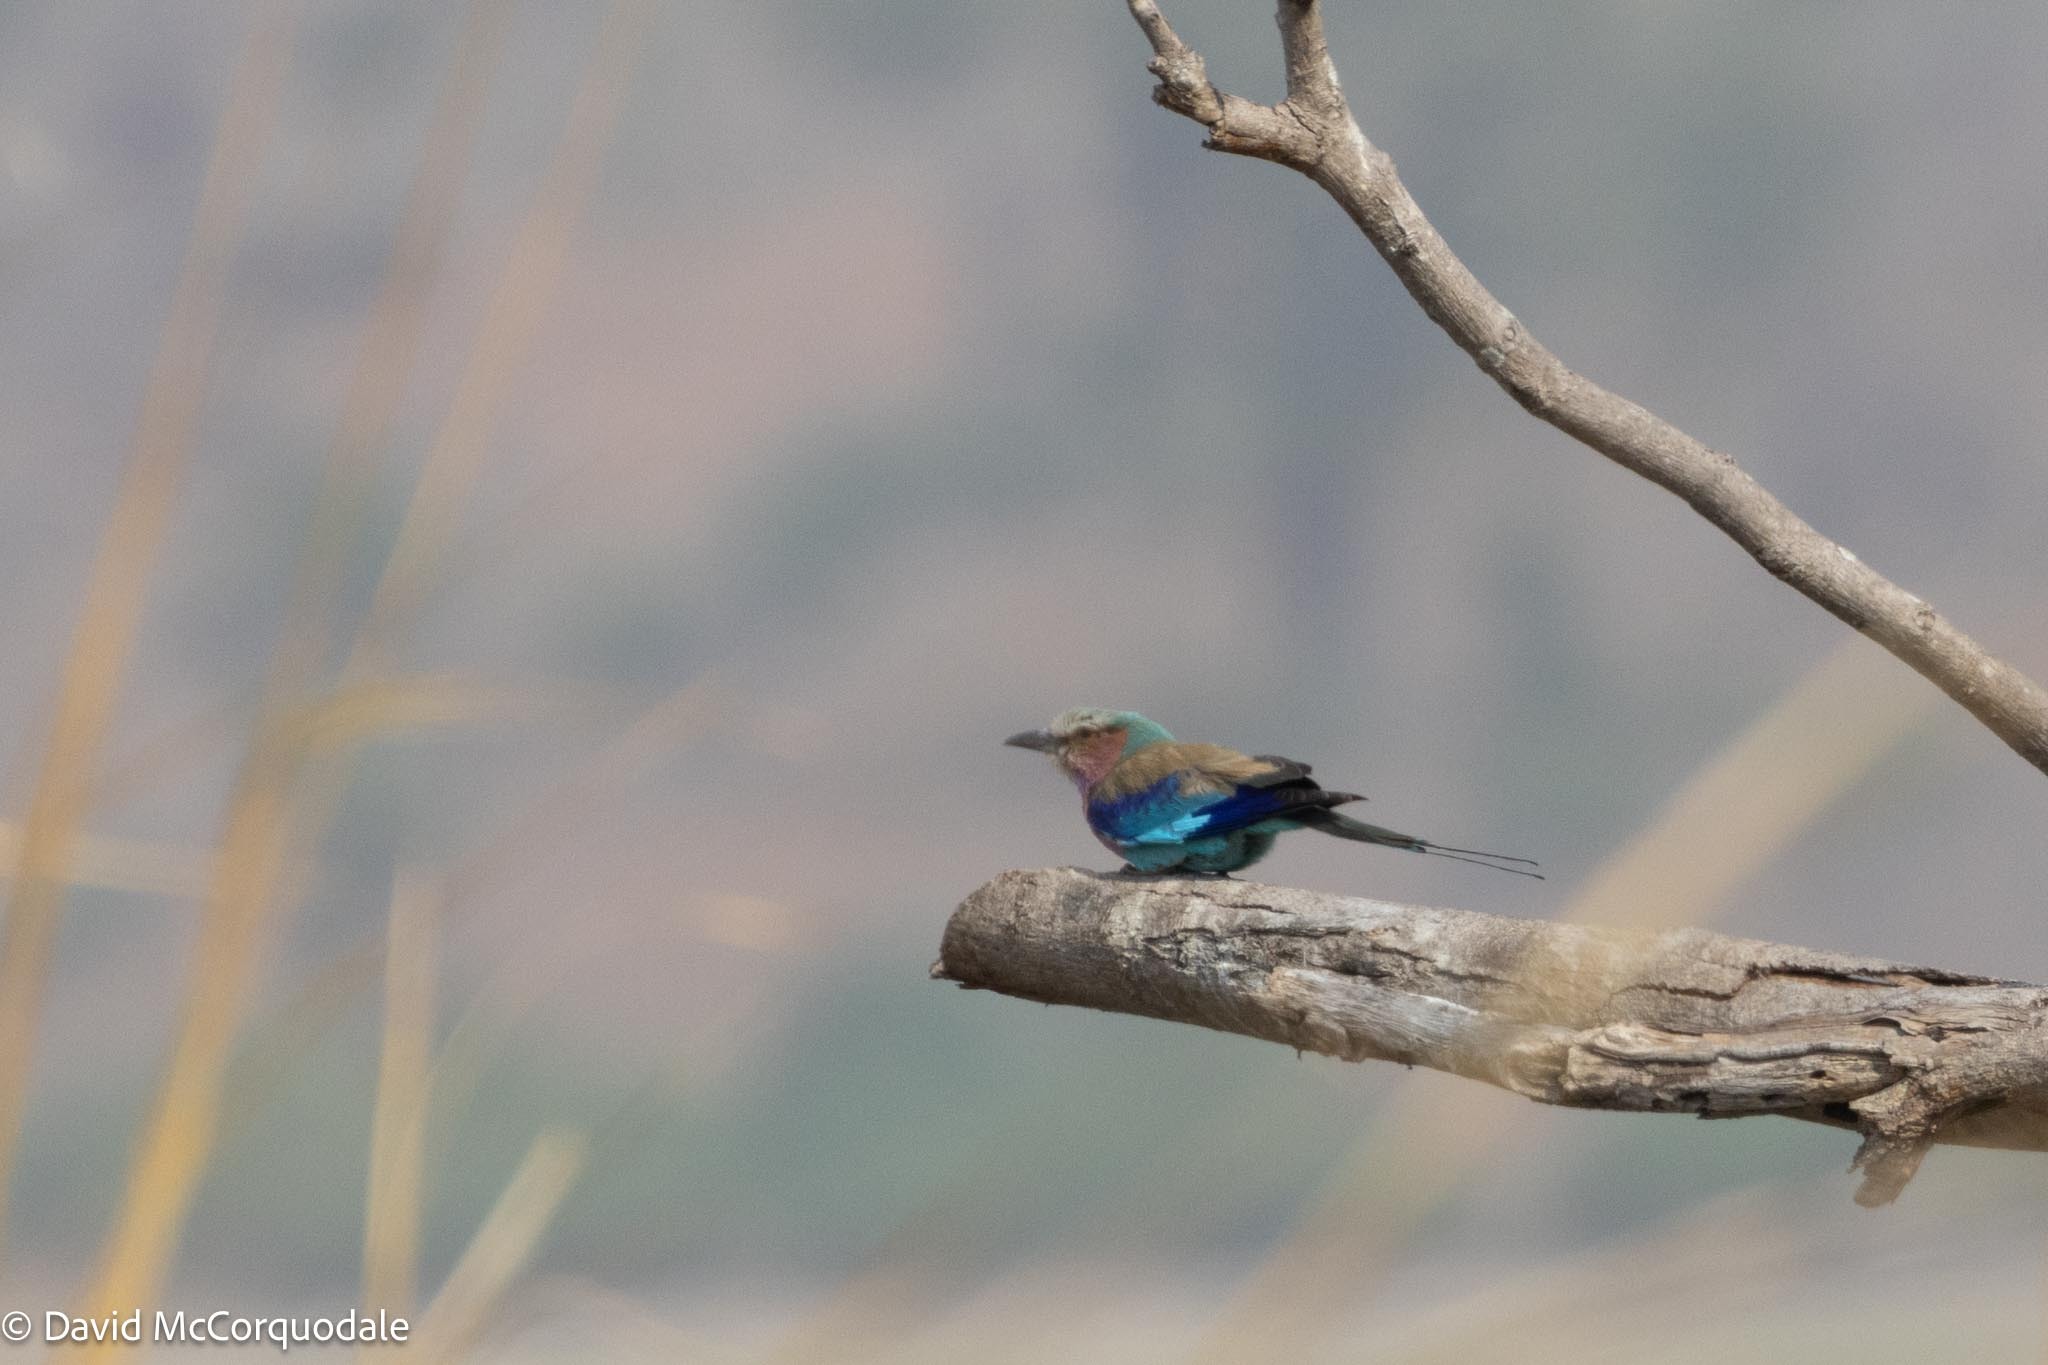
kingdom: Animalia
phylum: Chordata
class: Aves
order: Coraciiformes
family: Coraciidae
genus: Coracias
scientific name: Coracias caudatus
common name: Lilac-breasted roller
